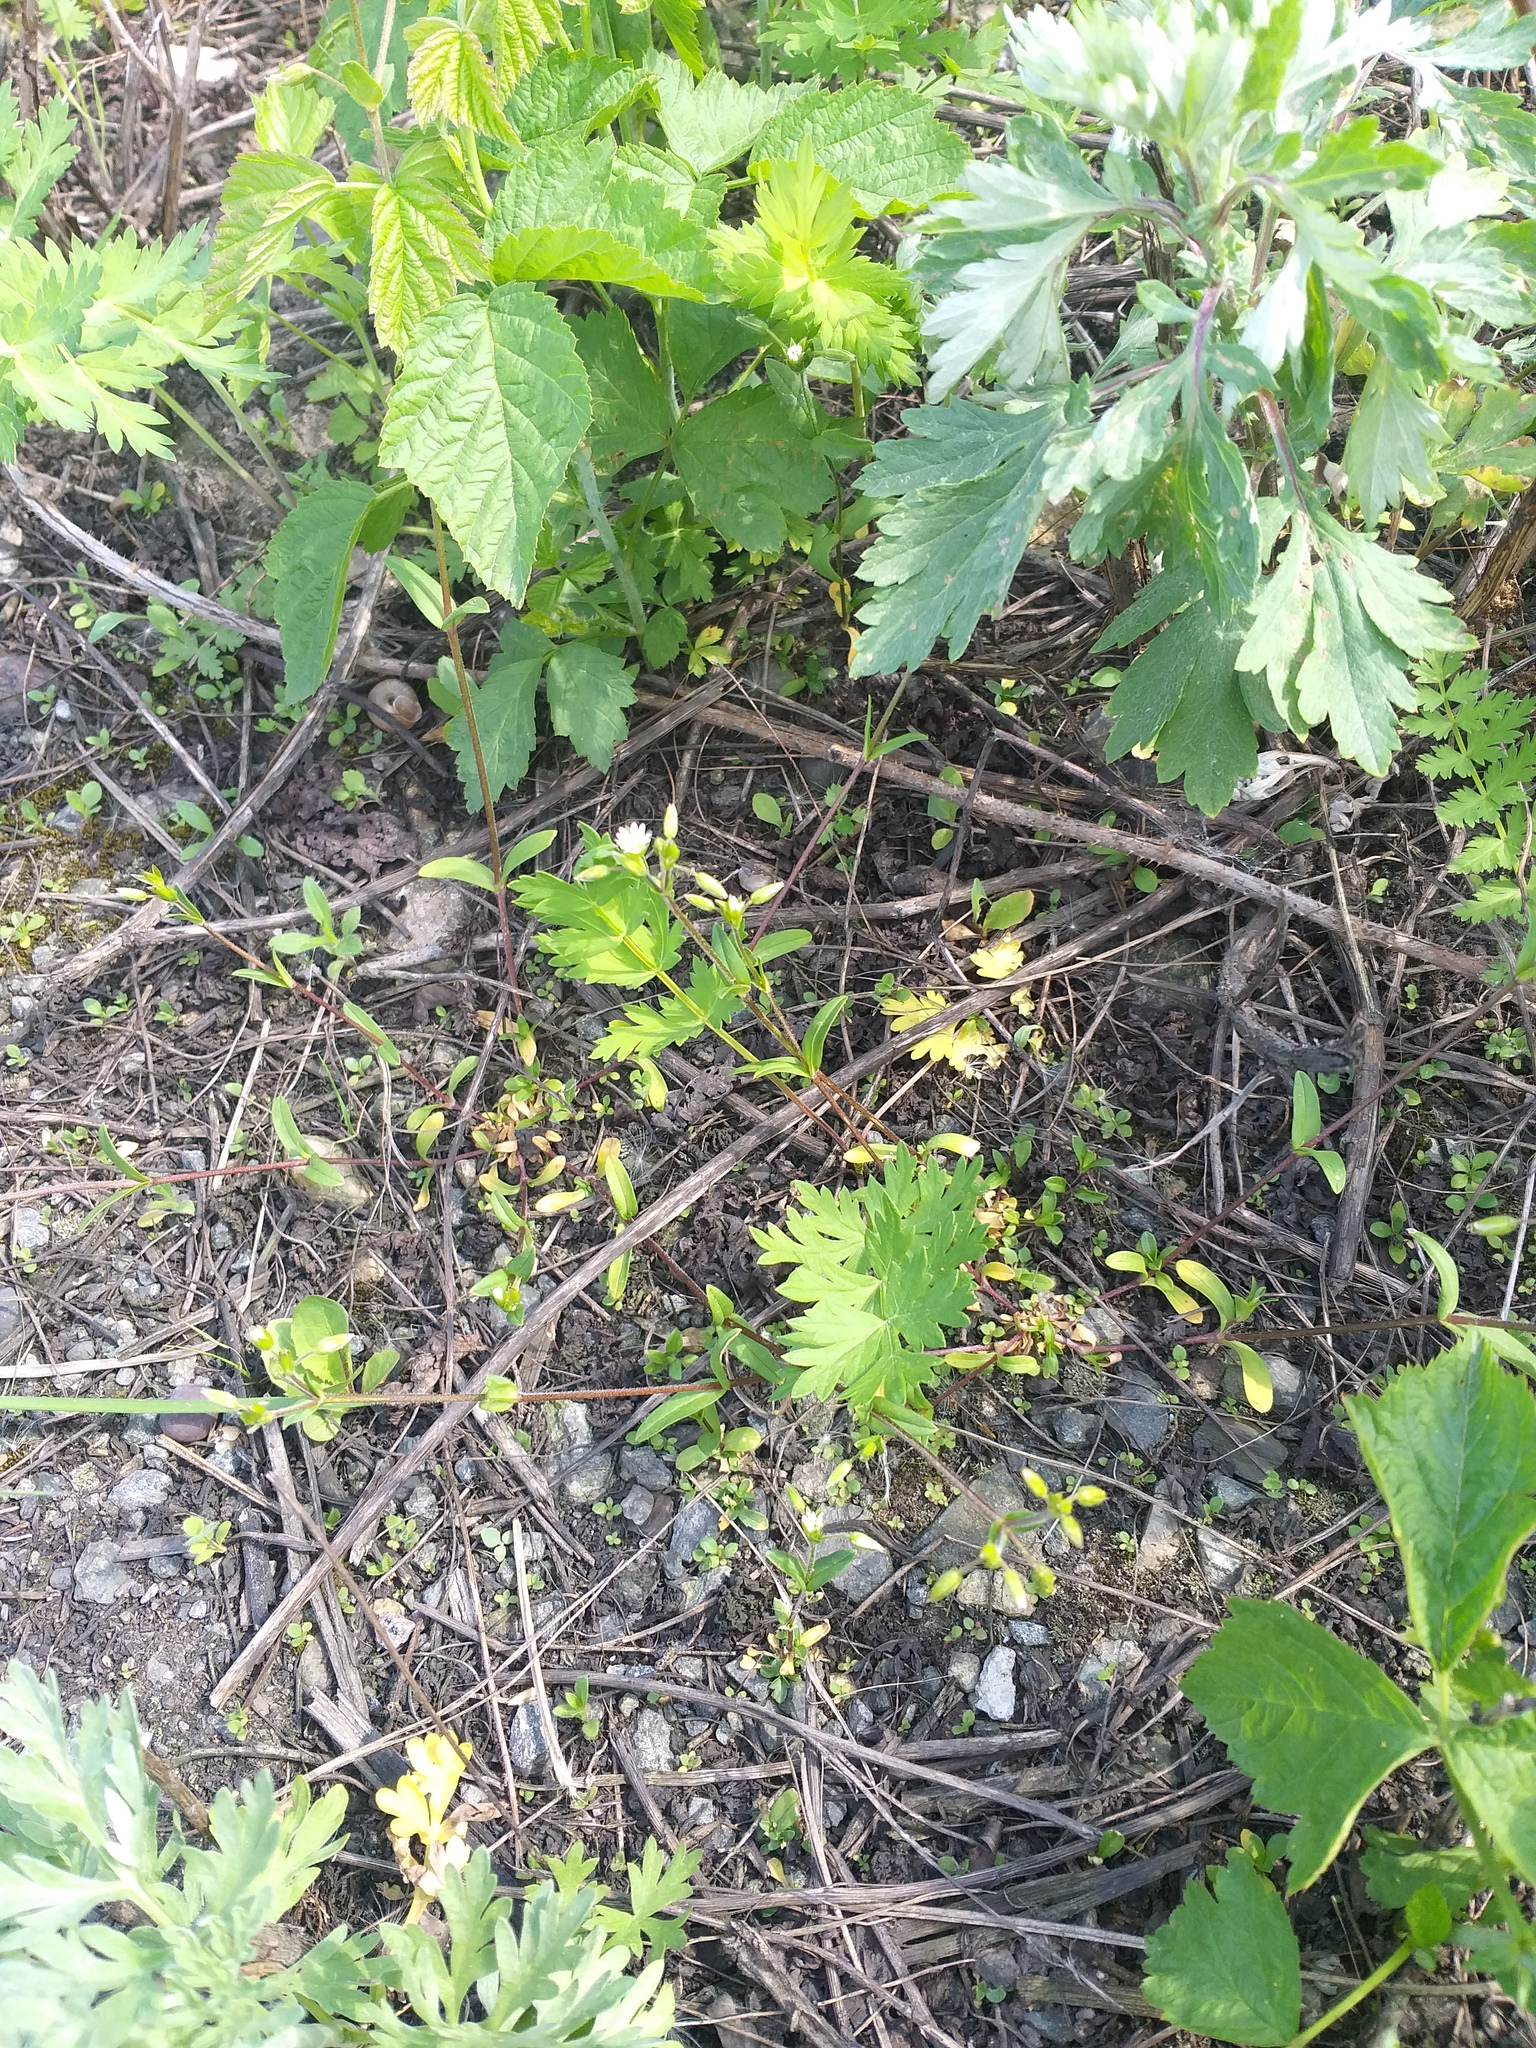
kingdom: Plantae
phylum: Tracheophyta
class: Magnoliopsida
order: Caryophyllales
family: Caryophyllaceae
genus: Cerastium
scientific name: Cerastium holosteoides
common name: Big chickweed
